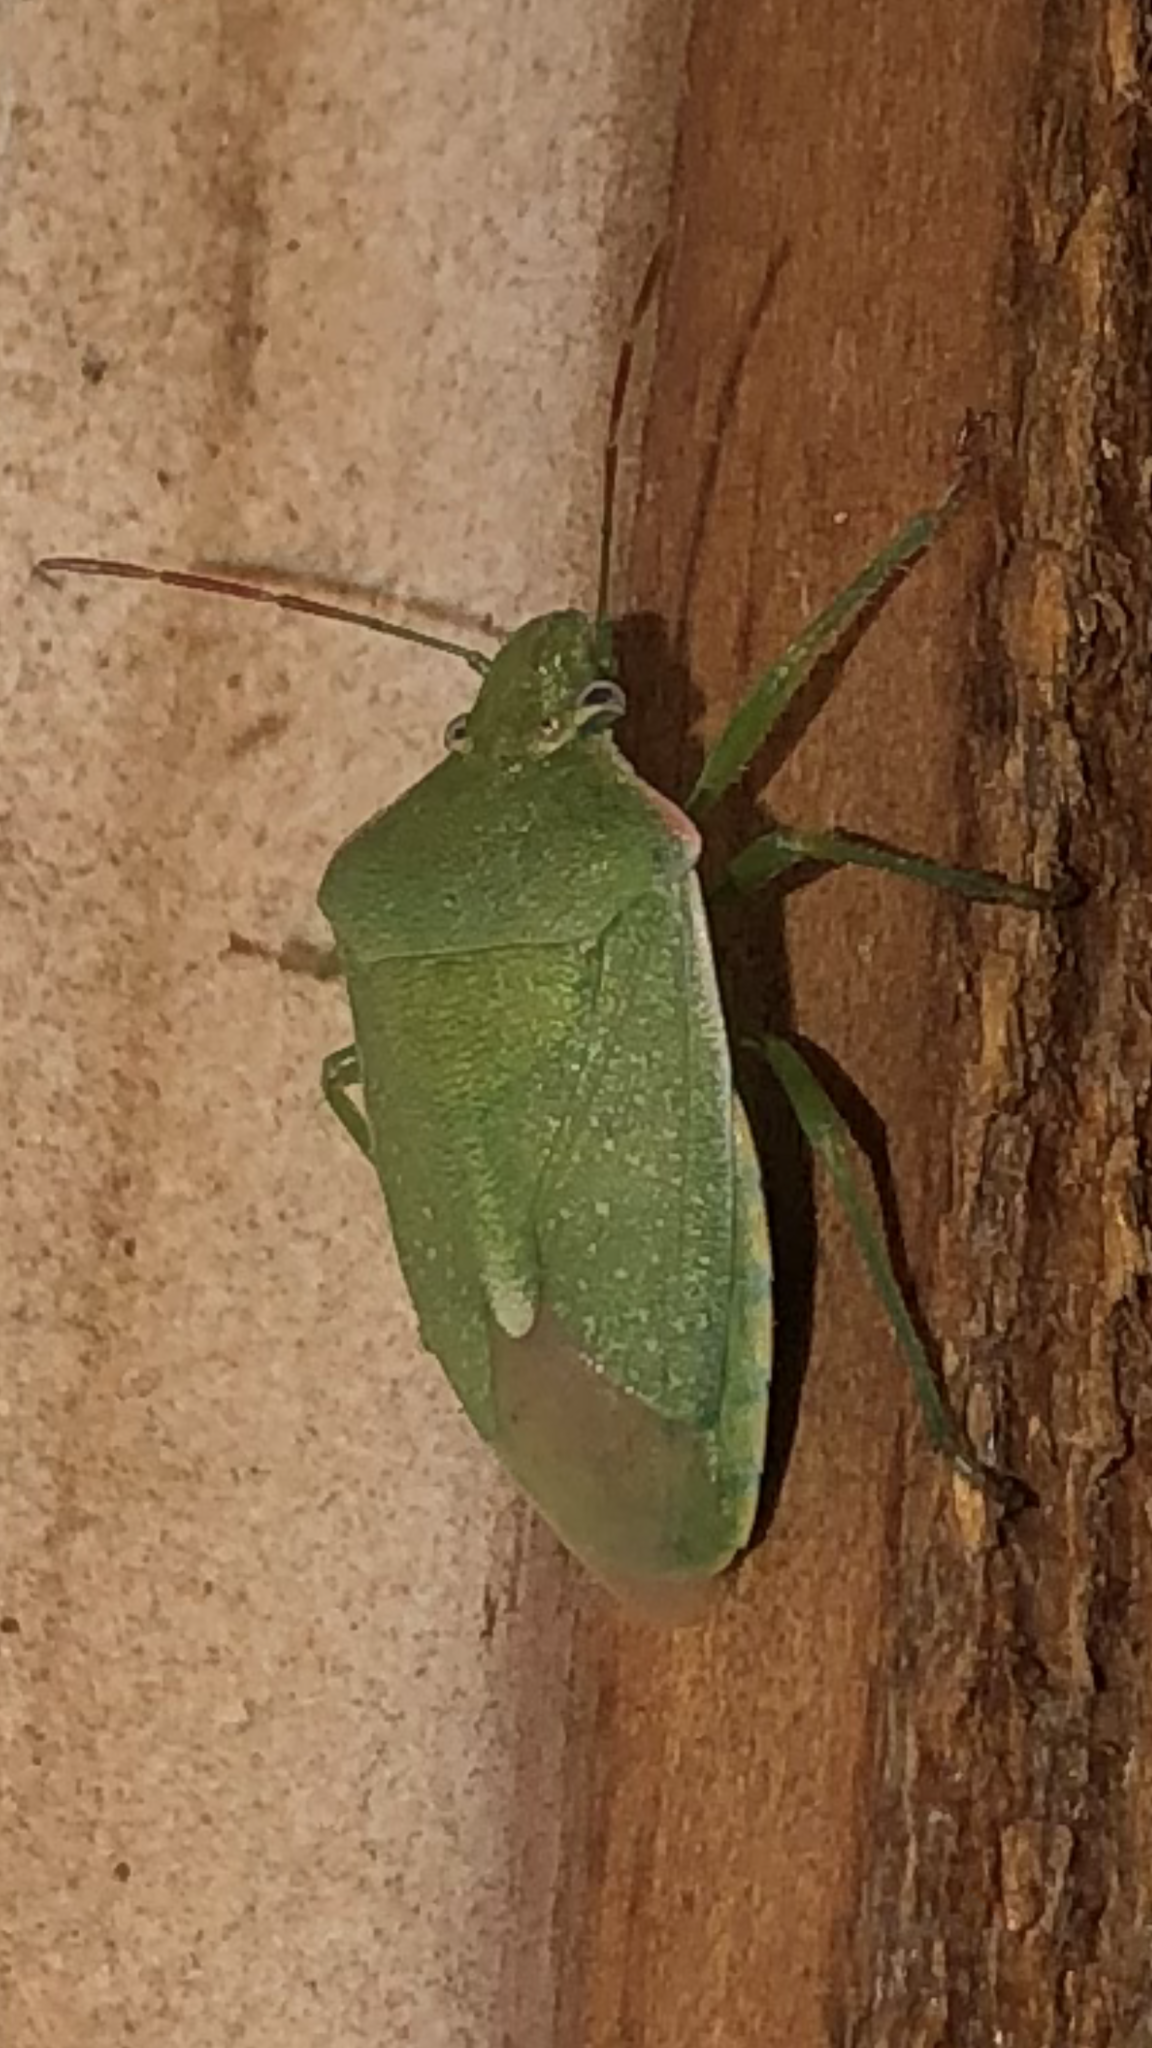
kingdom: Animalia
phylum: Arthropoda
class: Insecta
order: Hemiptera
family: Pentatomidae
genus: Thyanta
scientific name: Thyanta accerra
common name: Stink bug
